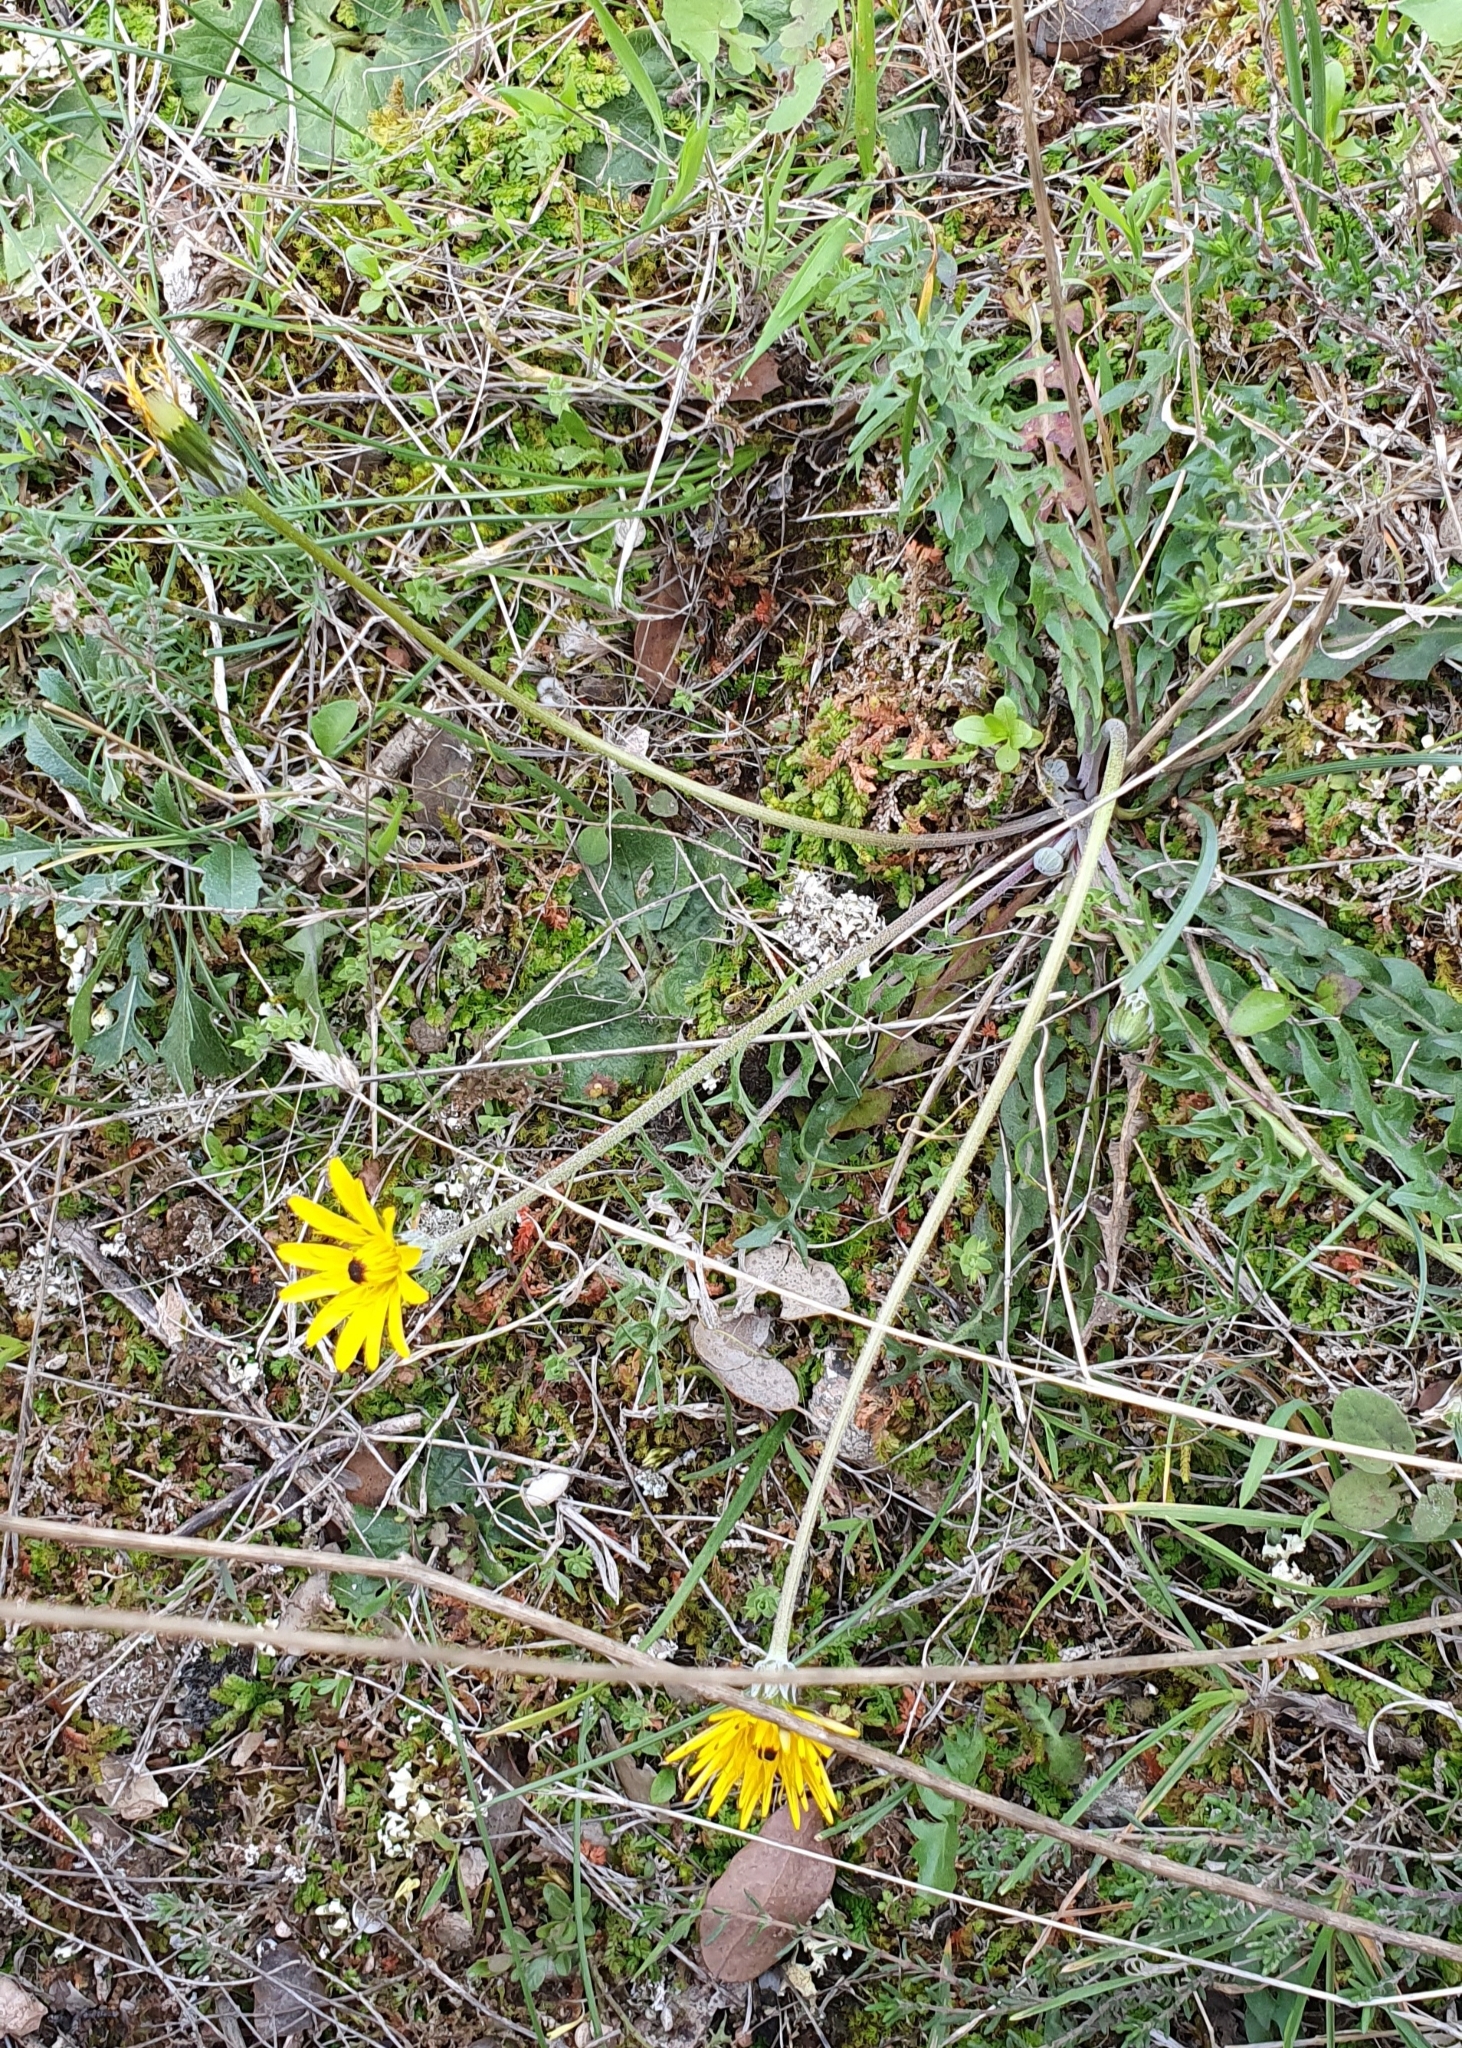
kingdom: Plantae
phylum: Tracheophyta
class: Magnoliopsida
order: Asterales
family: Asteraceae
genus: Hyoseris
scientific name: Hyoseris radiata
